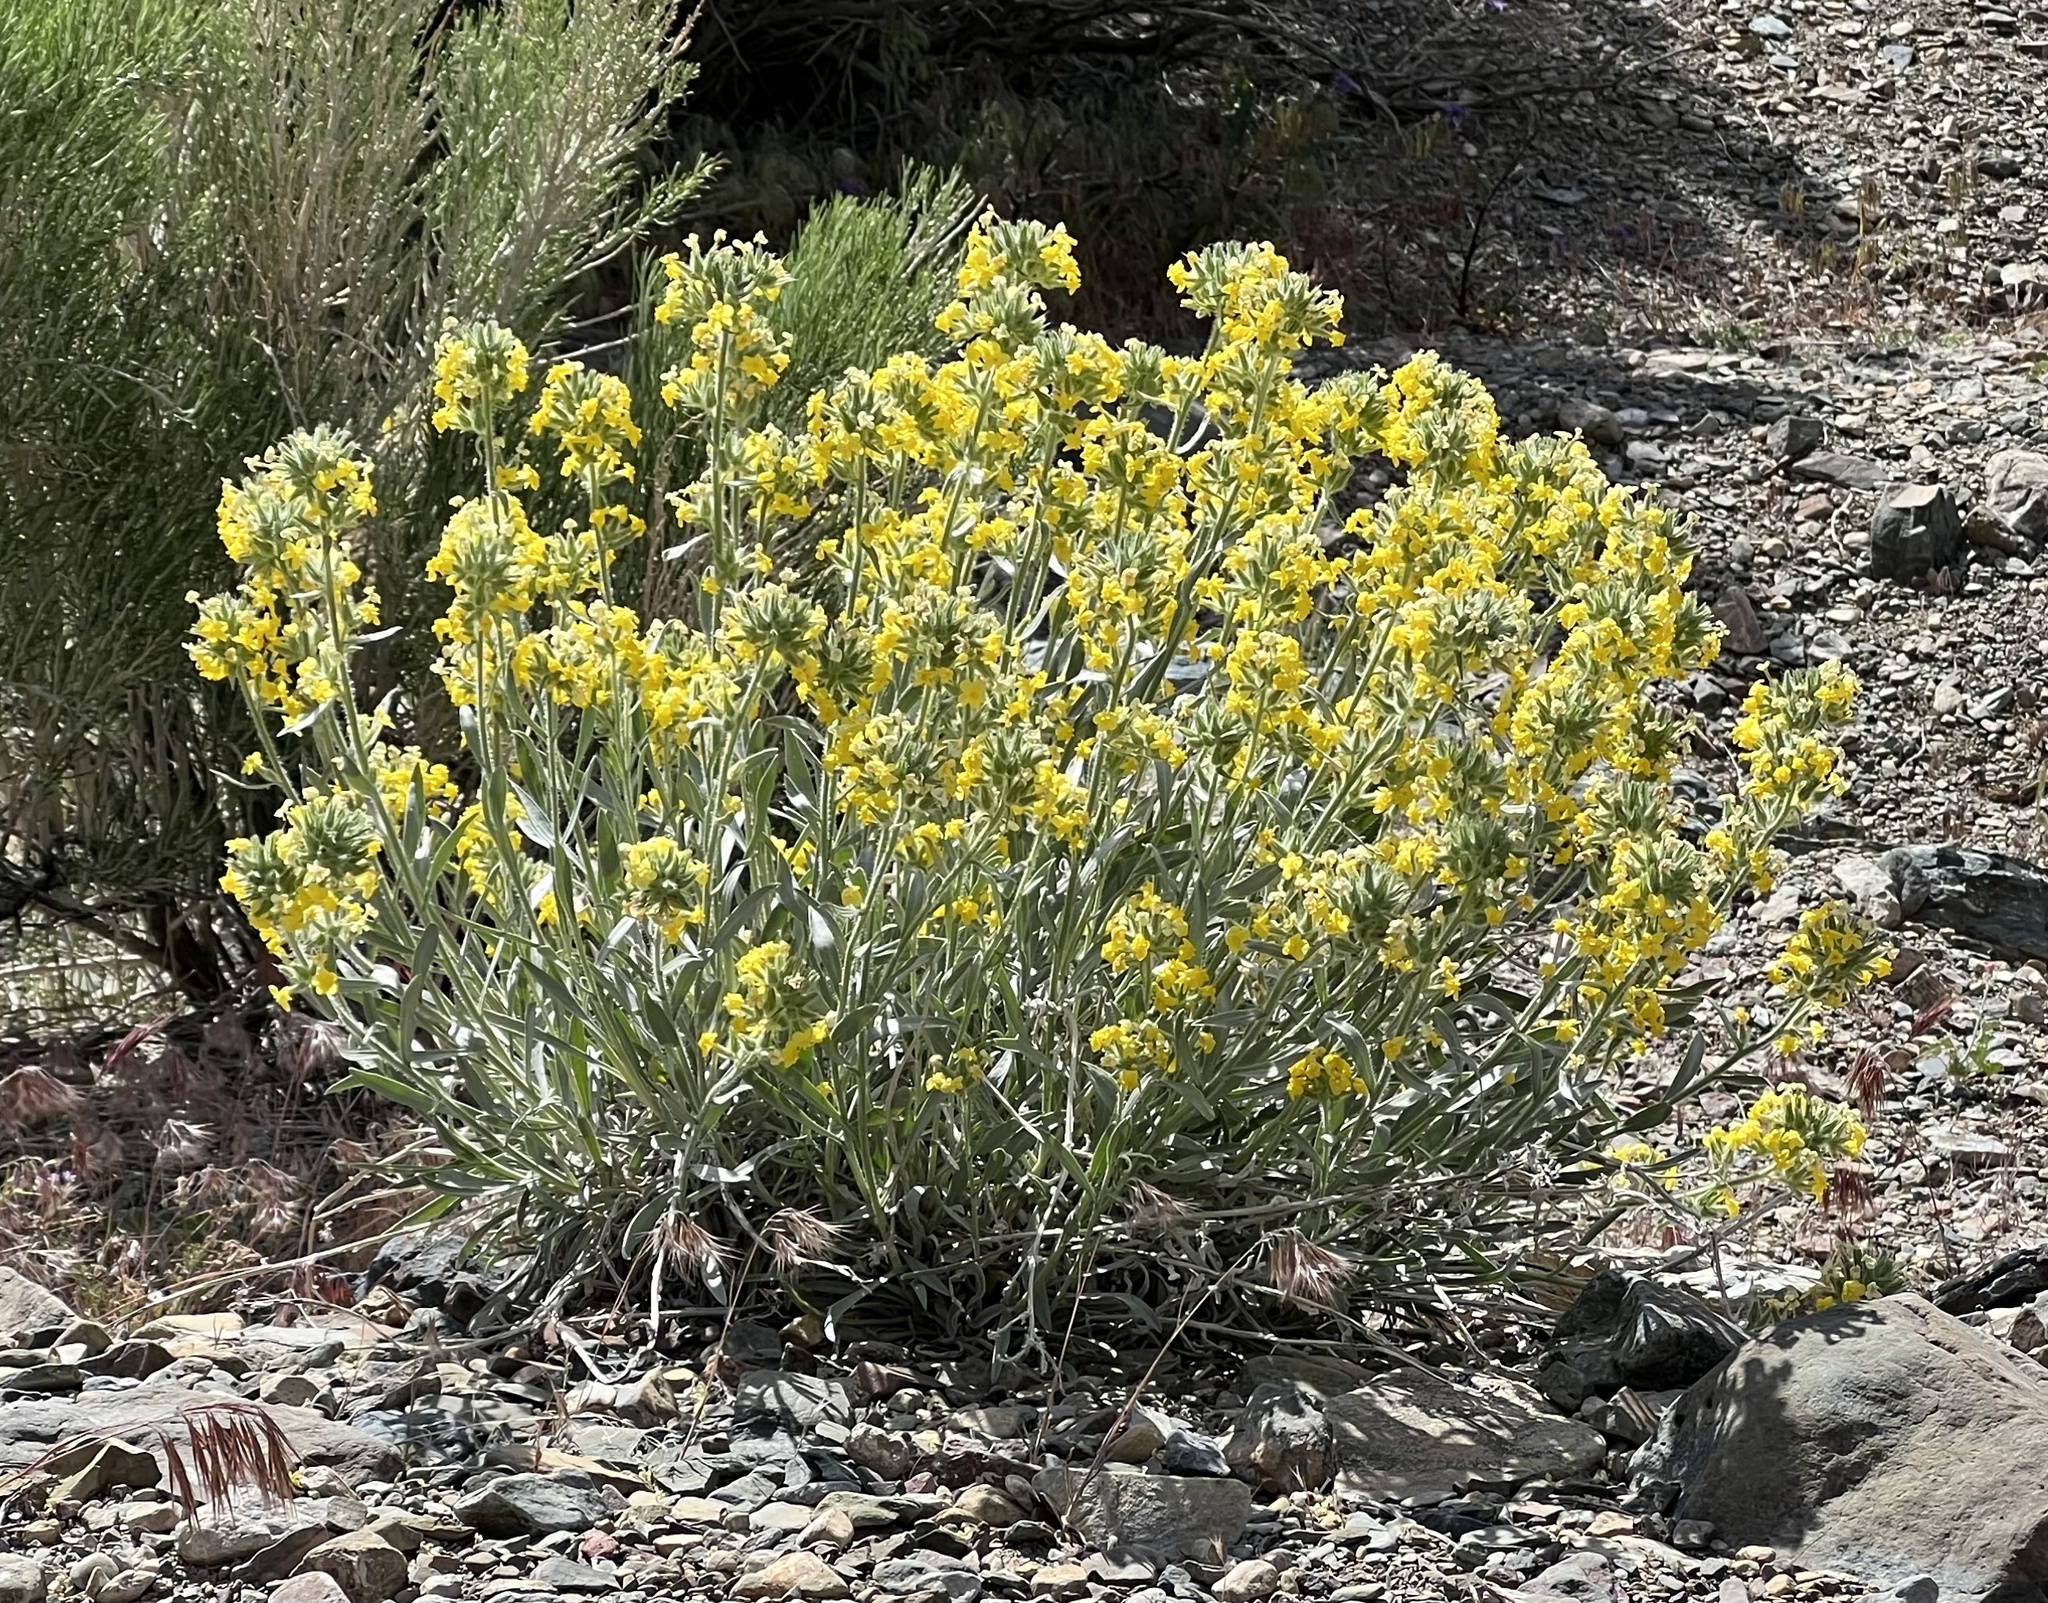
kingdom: Plantae
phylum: Tracheophyta
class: Magnoliopsida
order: Boraginales
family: Boraginaceae
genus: Oreocarya
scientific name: Oreocarya confertiflora
